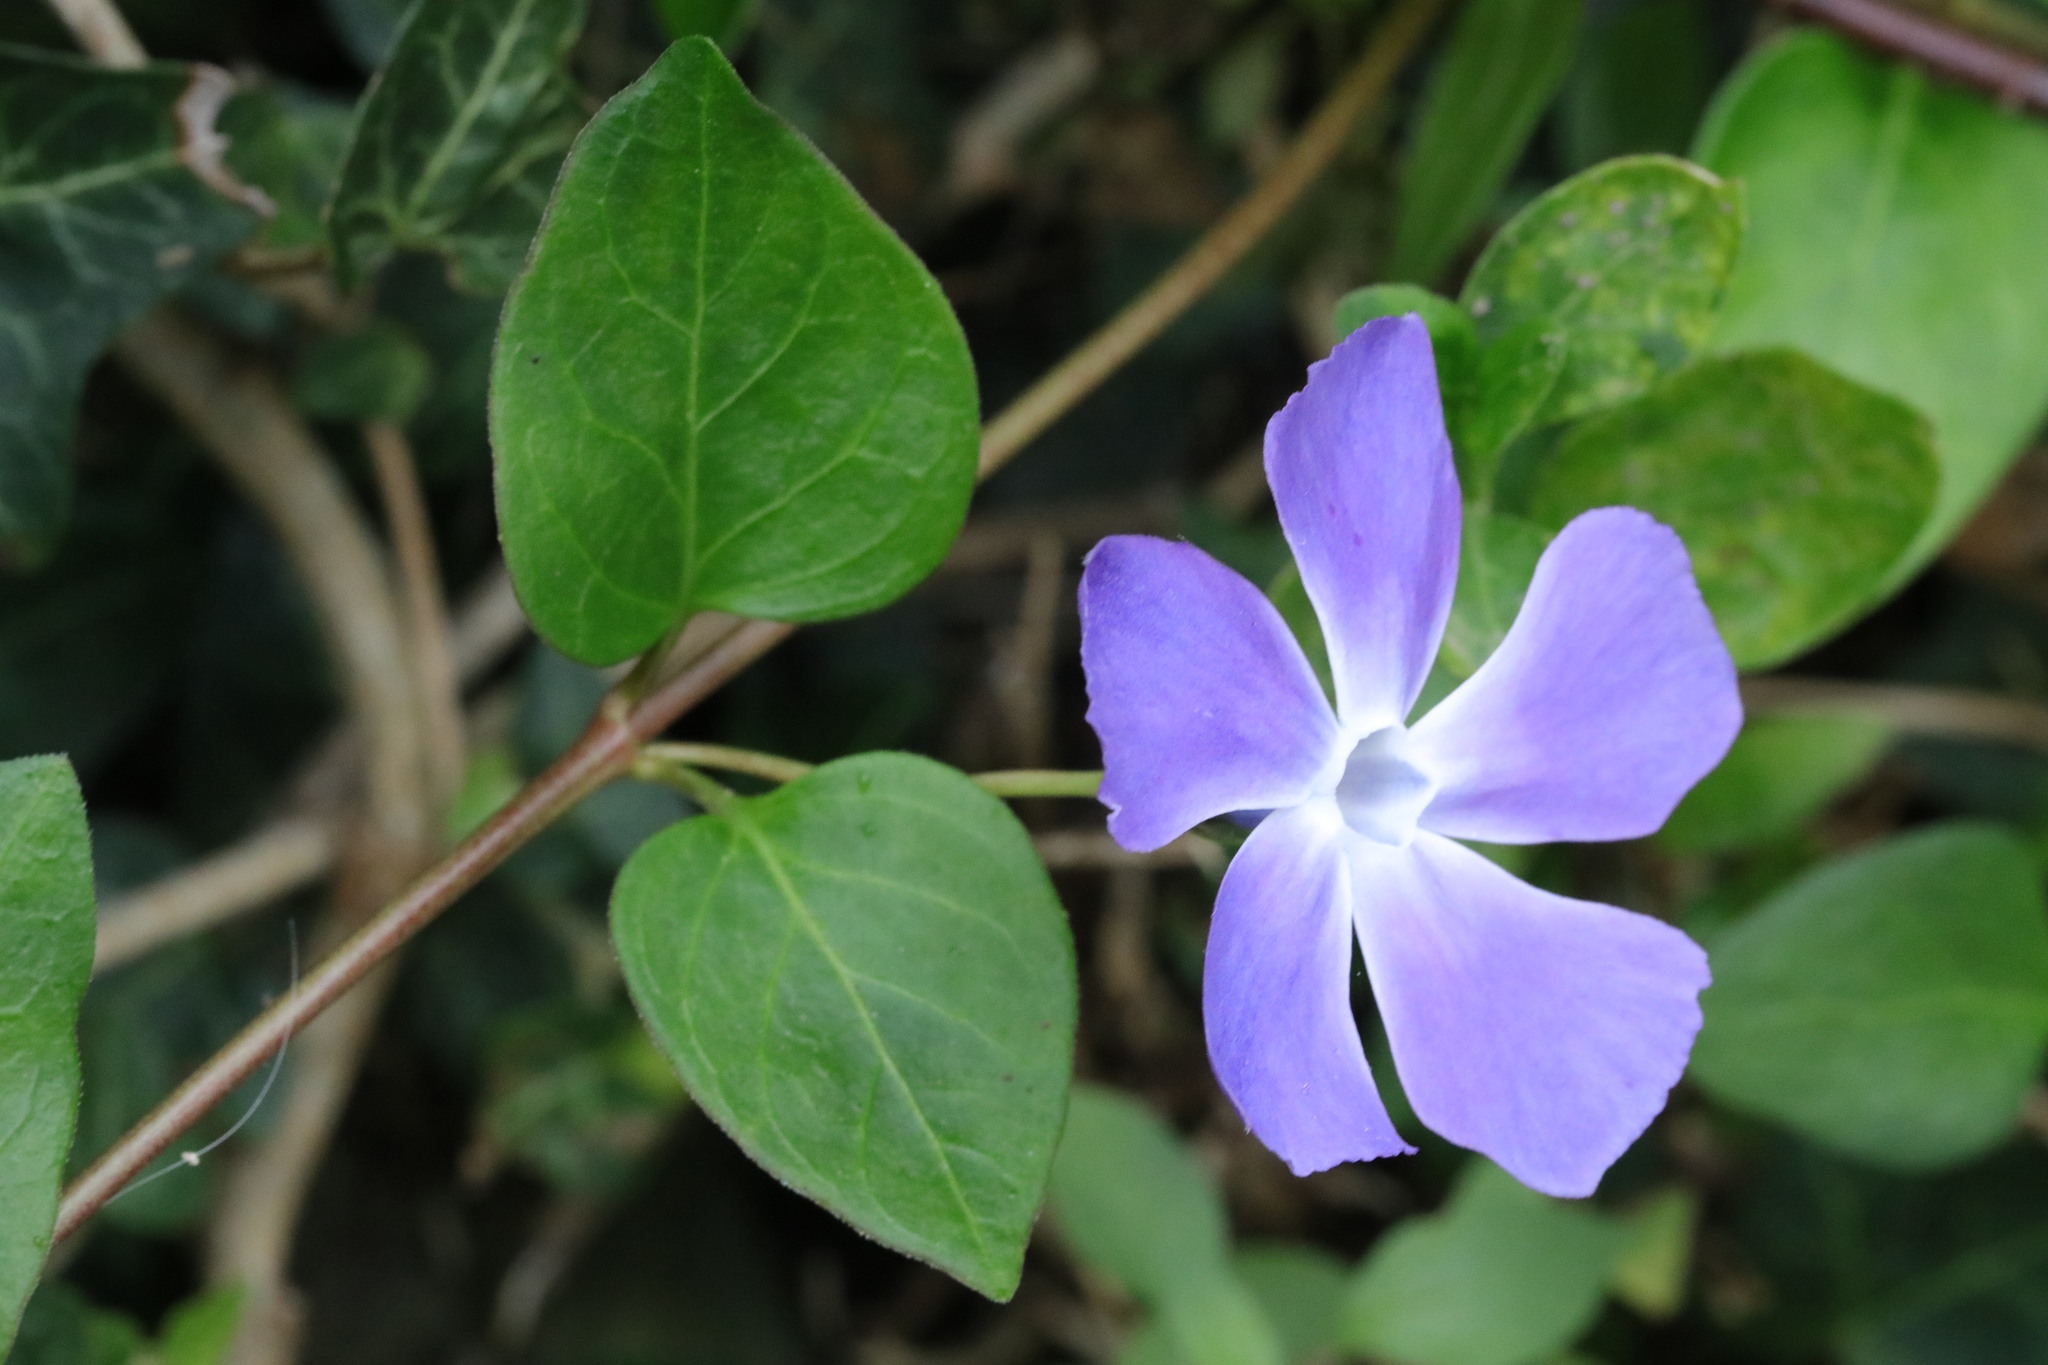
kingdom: Plantae
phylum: Tracheophyta
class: Magnoliopsida
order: Gentianales
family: Apocynaceae
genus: Vinca
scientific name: Vinca major
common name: Greater periwinkle
